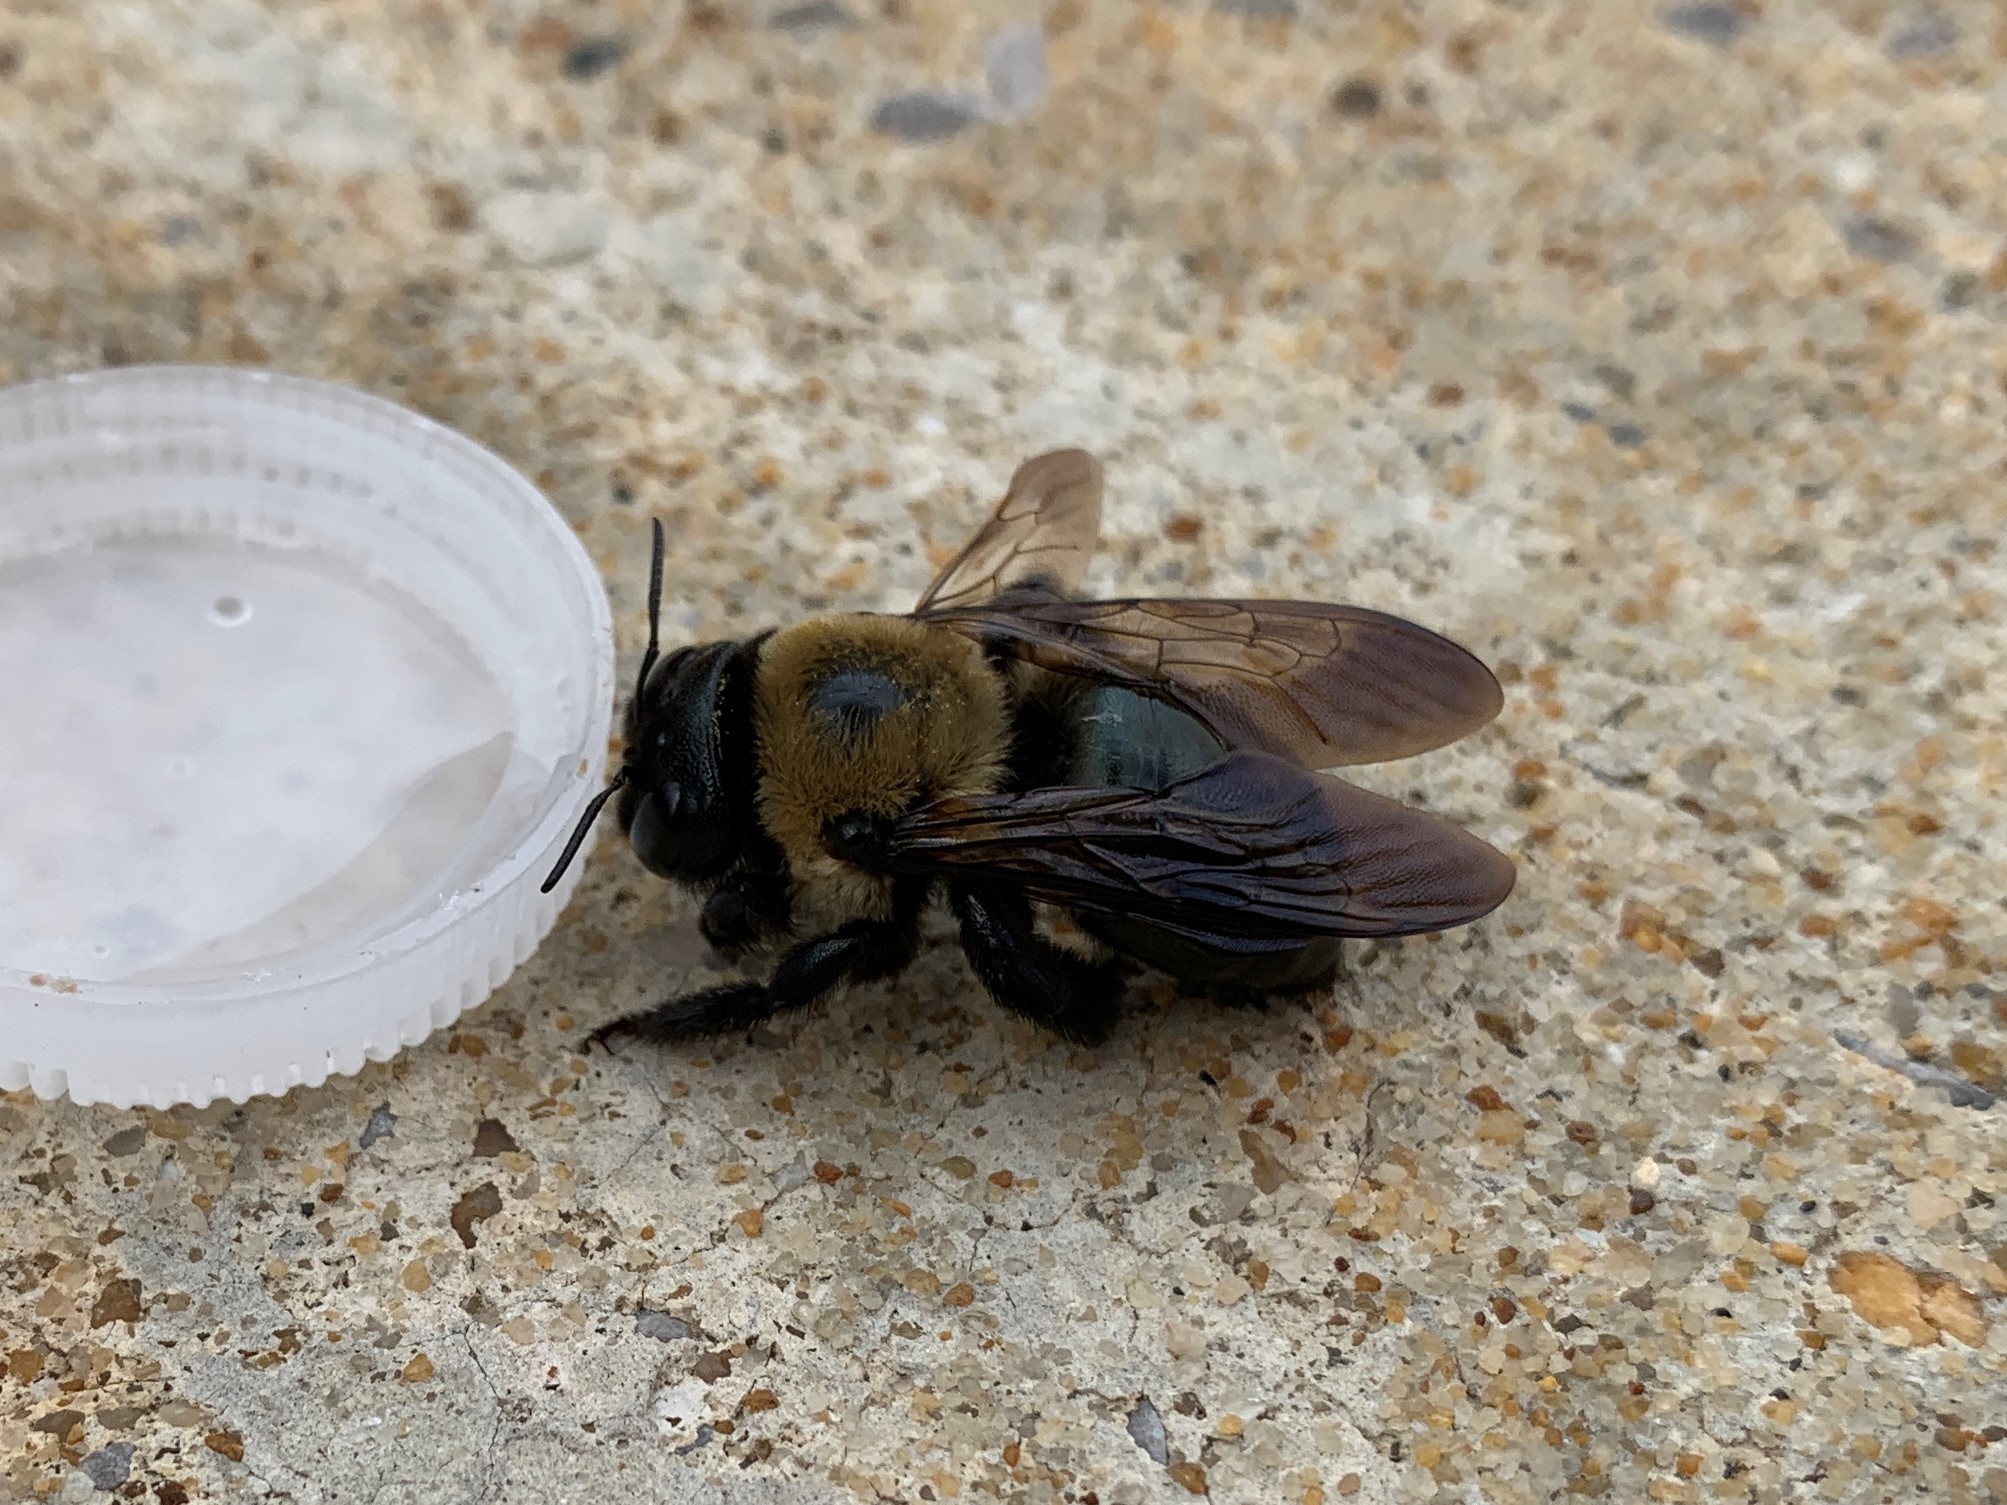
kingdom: Animalia
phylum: Arthropoda
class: Insecta
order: Hymenoptera
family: Apidae
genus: Xylocopa
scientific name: Xylocopa virginica
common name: Carpenter bee
